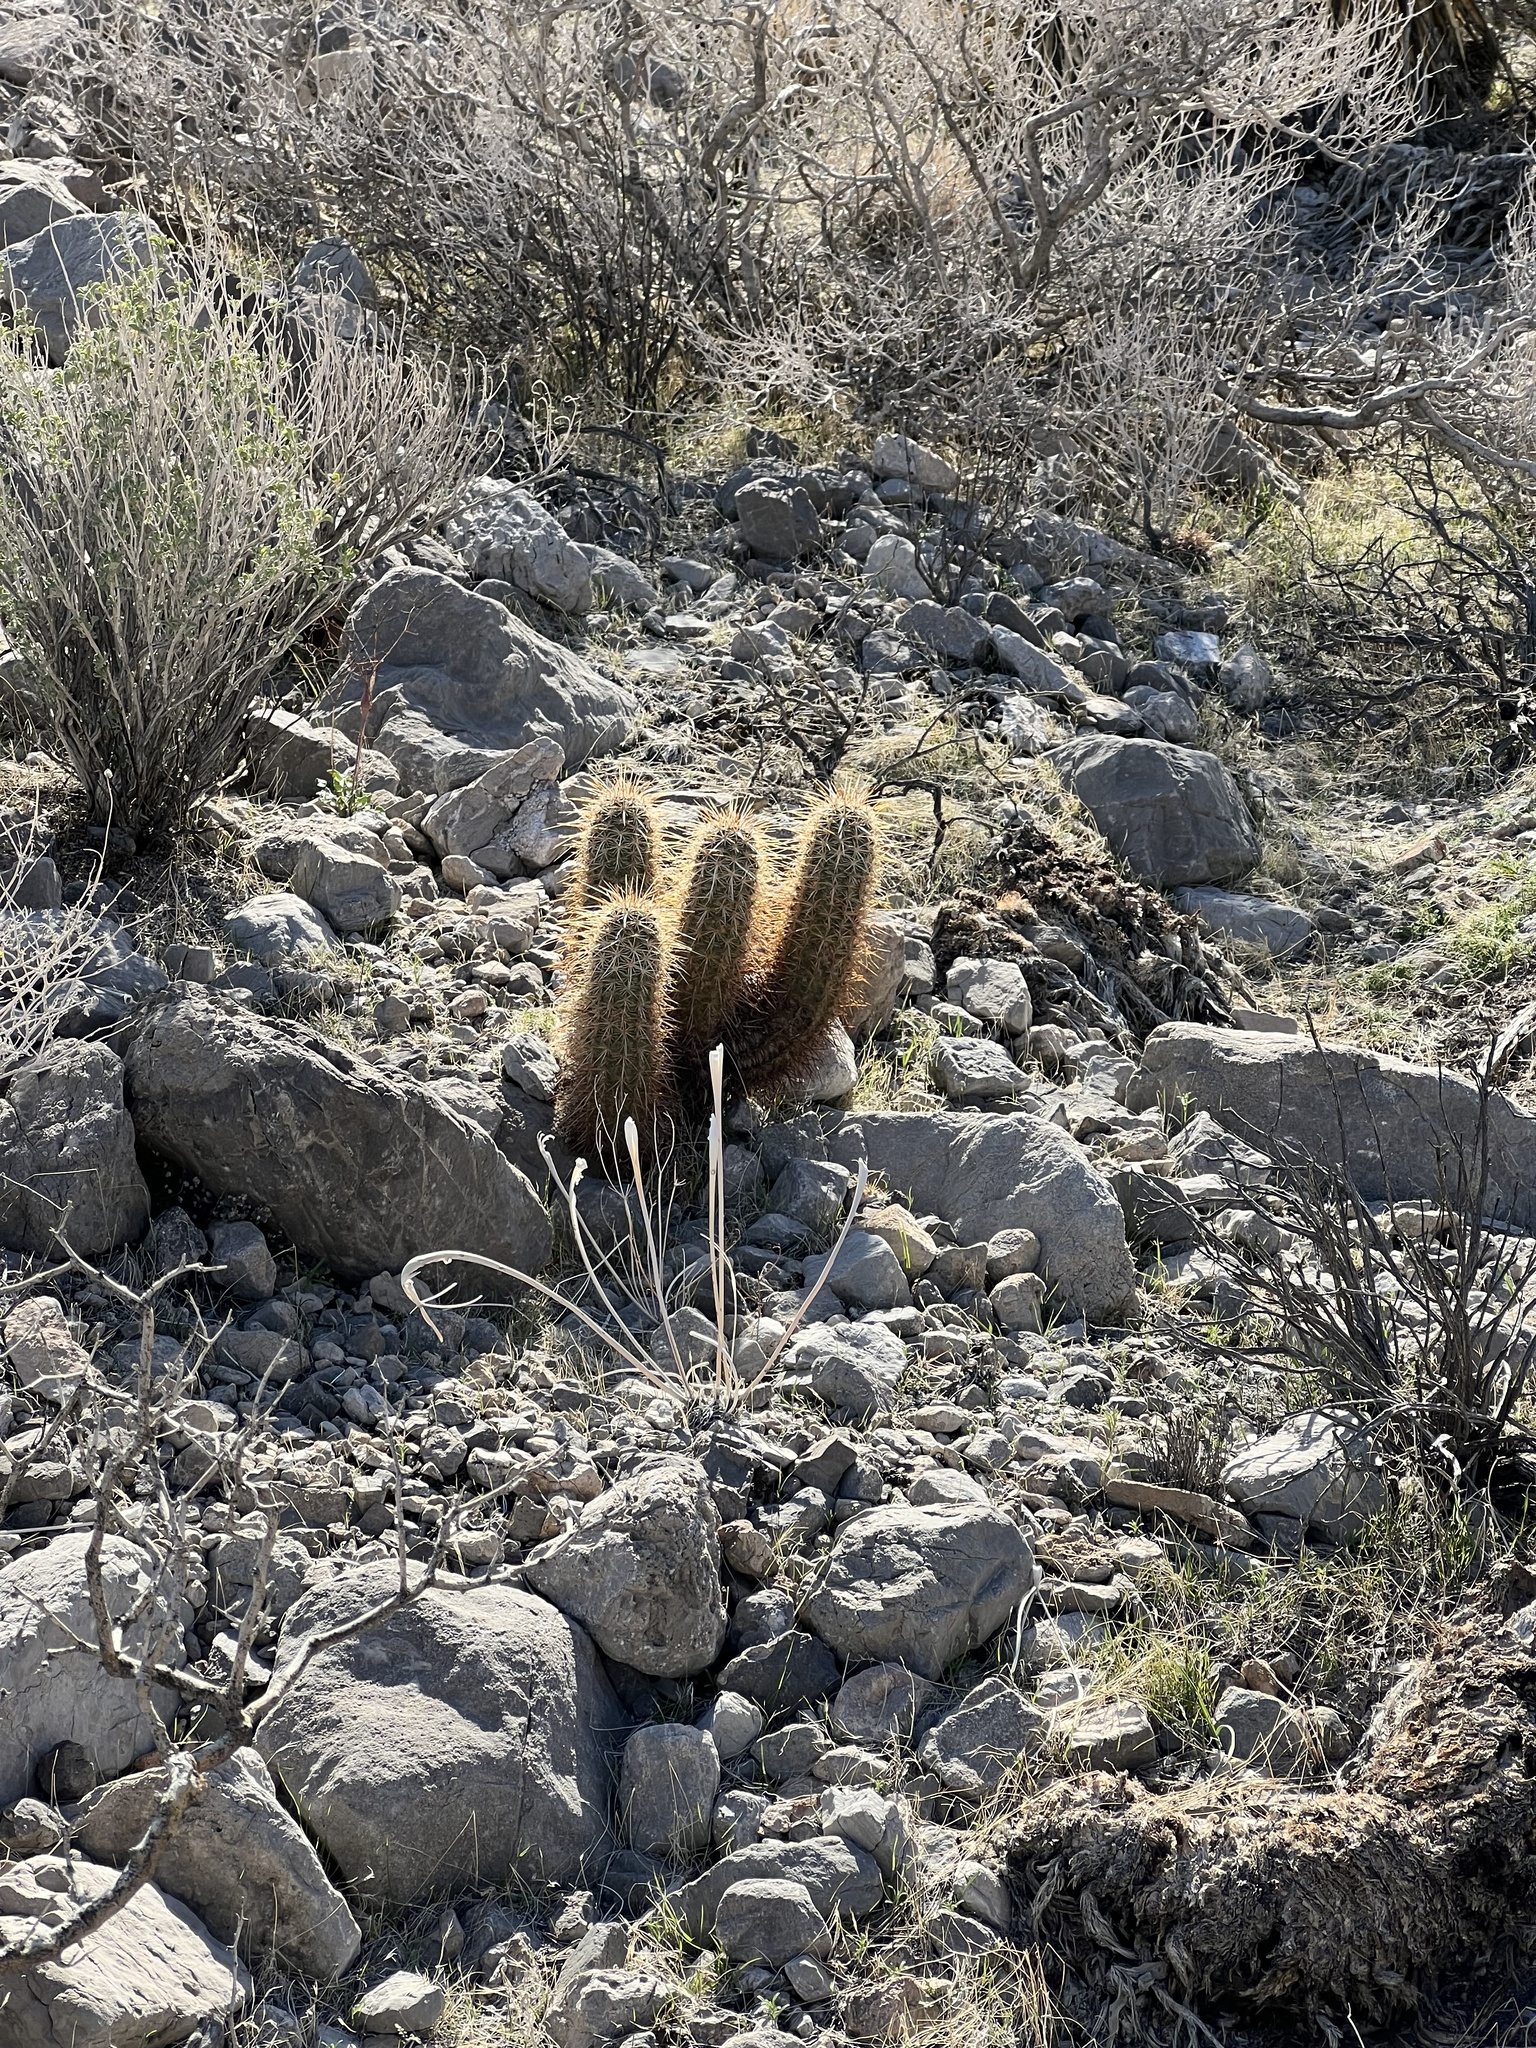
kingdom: Plantae
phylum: Tracheophyta
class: Magnoliopsida
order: Caryophyllales
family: Cactaceae
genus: Echinocereus
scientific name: Echinocereus engelmannii
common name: Engelmann's hedgehog cactus
